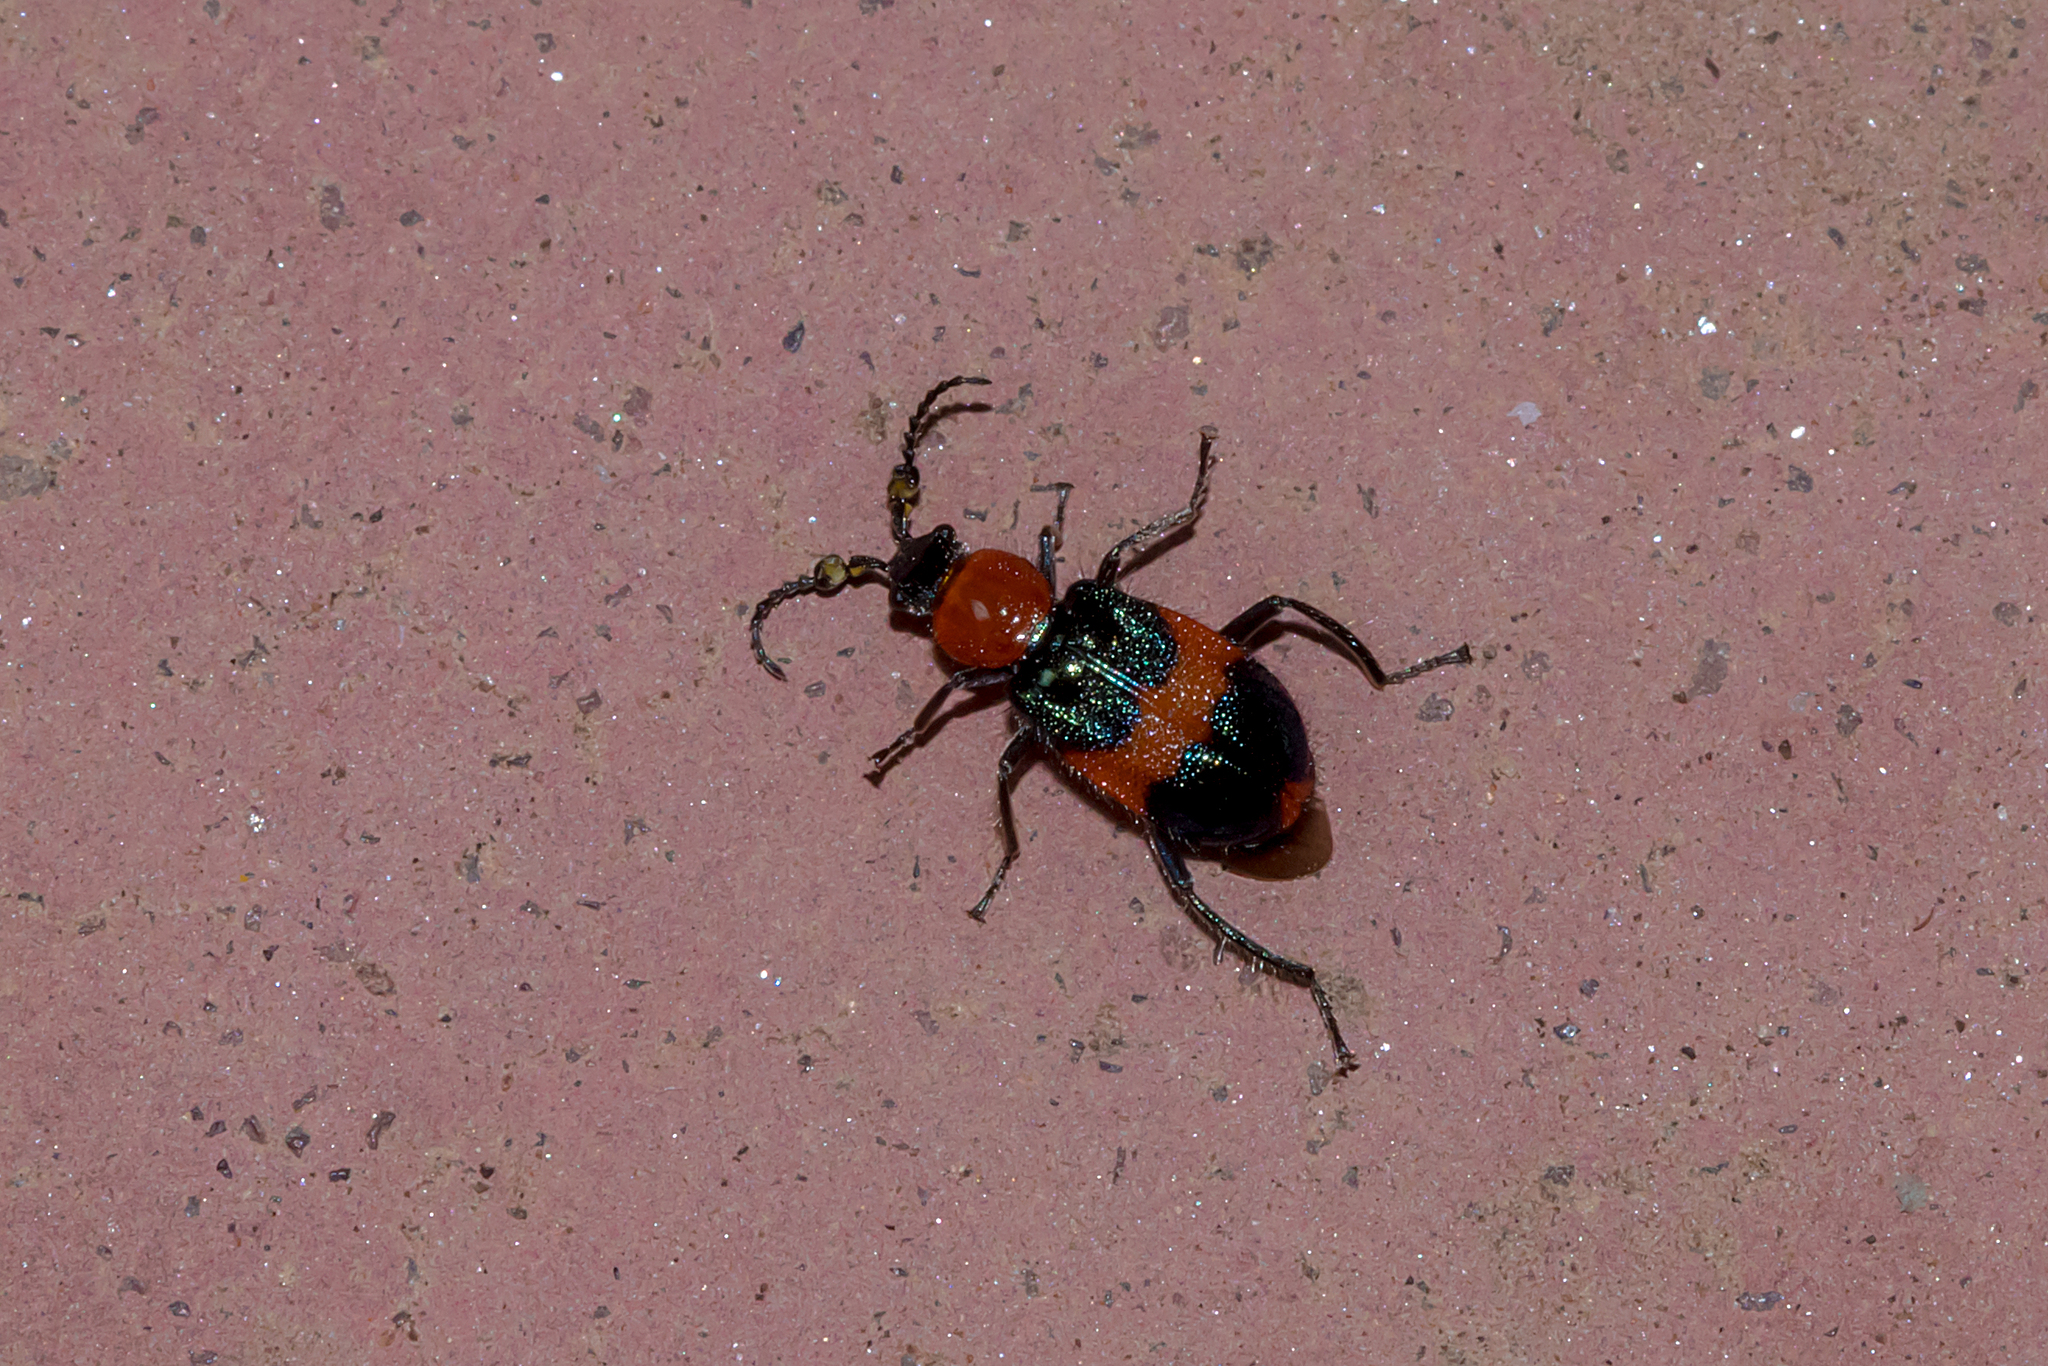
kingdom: Animalia
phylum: Arthropoda
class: Insecta
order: Coleoptera
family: Melyridae
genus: Dicranolaius
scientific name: Dicranolaius bellulus
